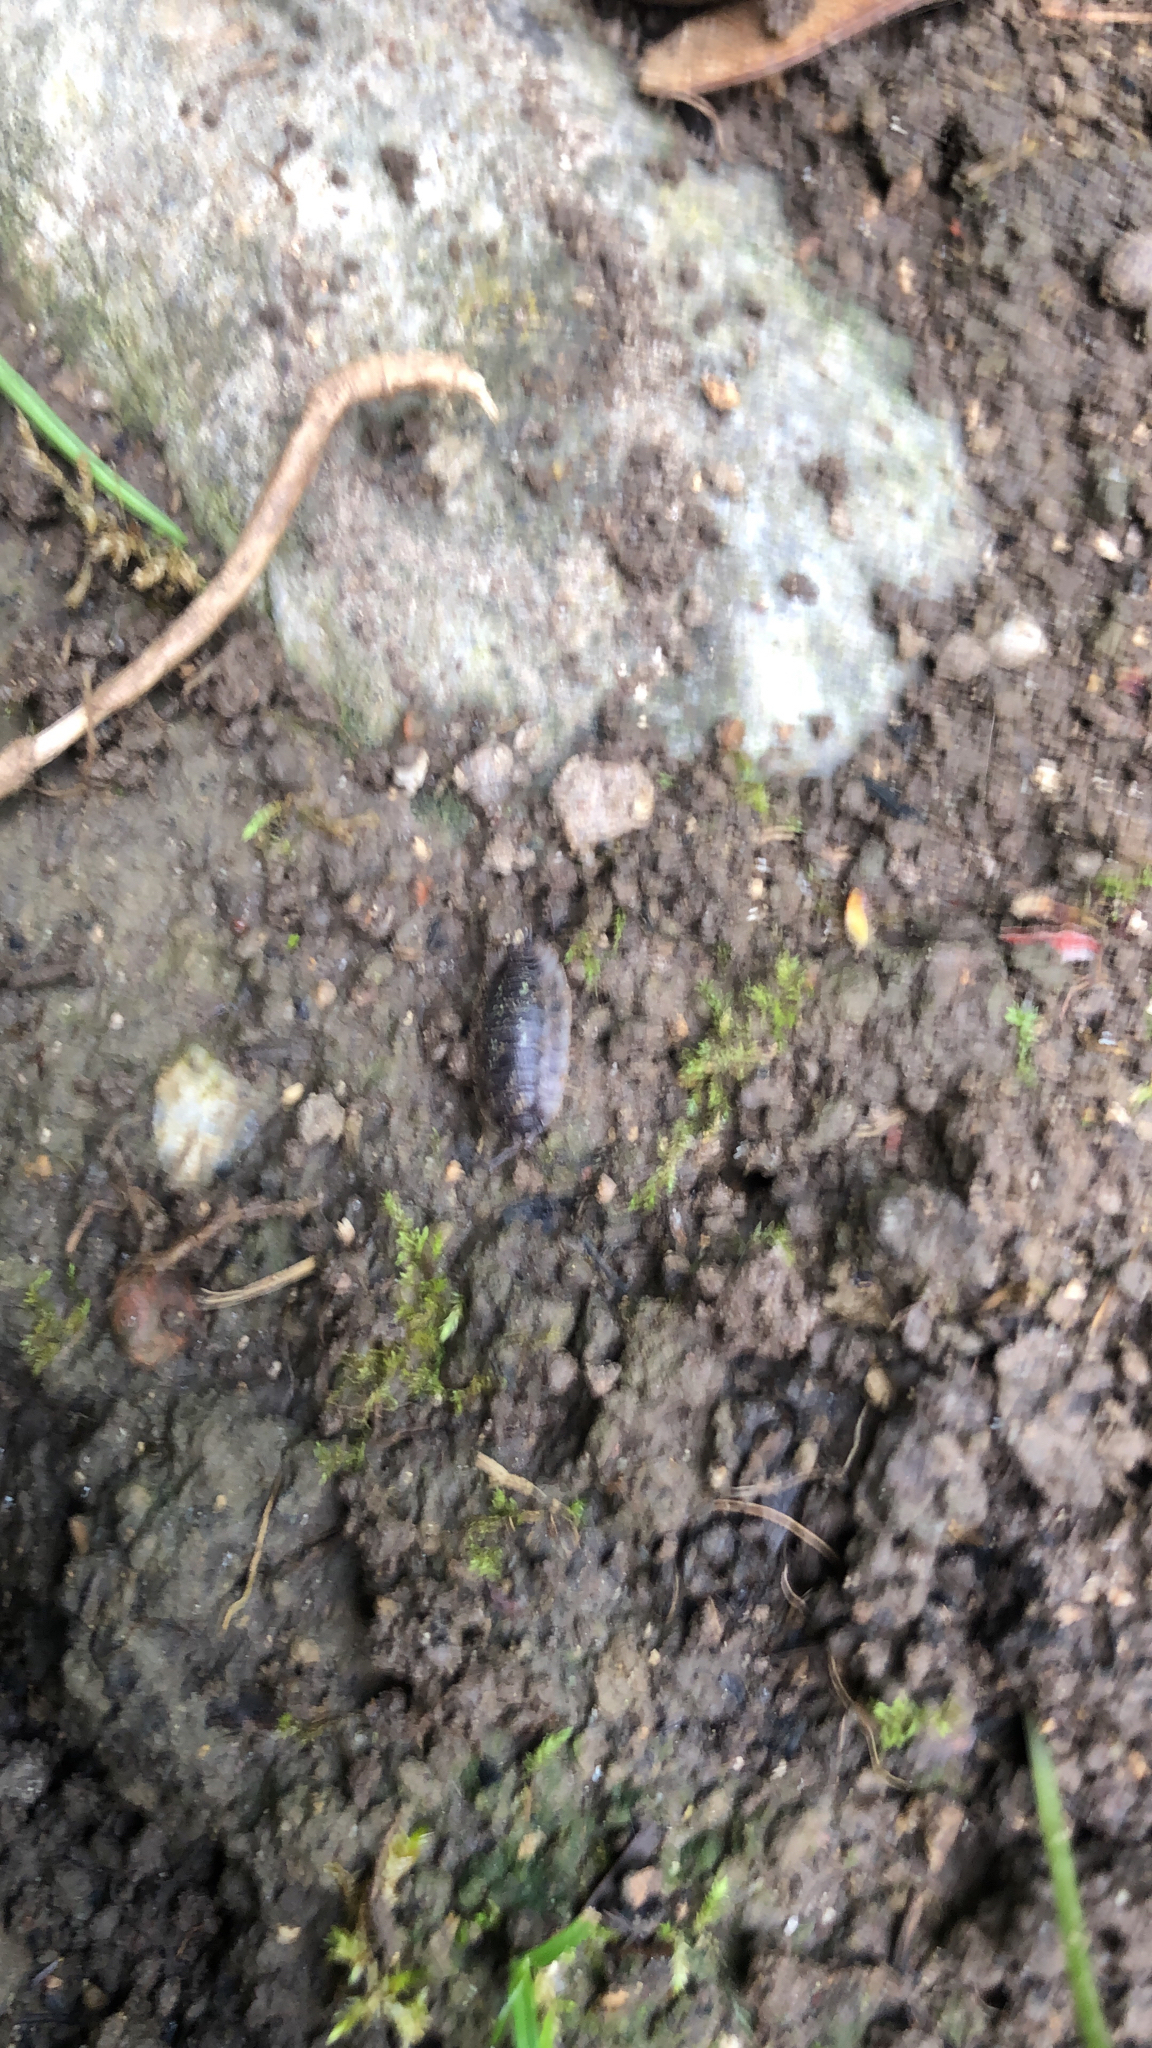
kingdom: Animalia
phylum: Arthropoda
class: Malacostraca
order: Isopoda
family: Oniscidae
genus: Oniscus
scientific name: Oniscus asellus
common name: Common shiny woodlouse
